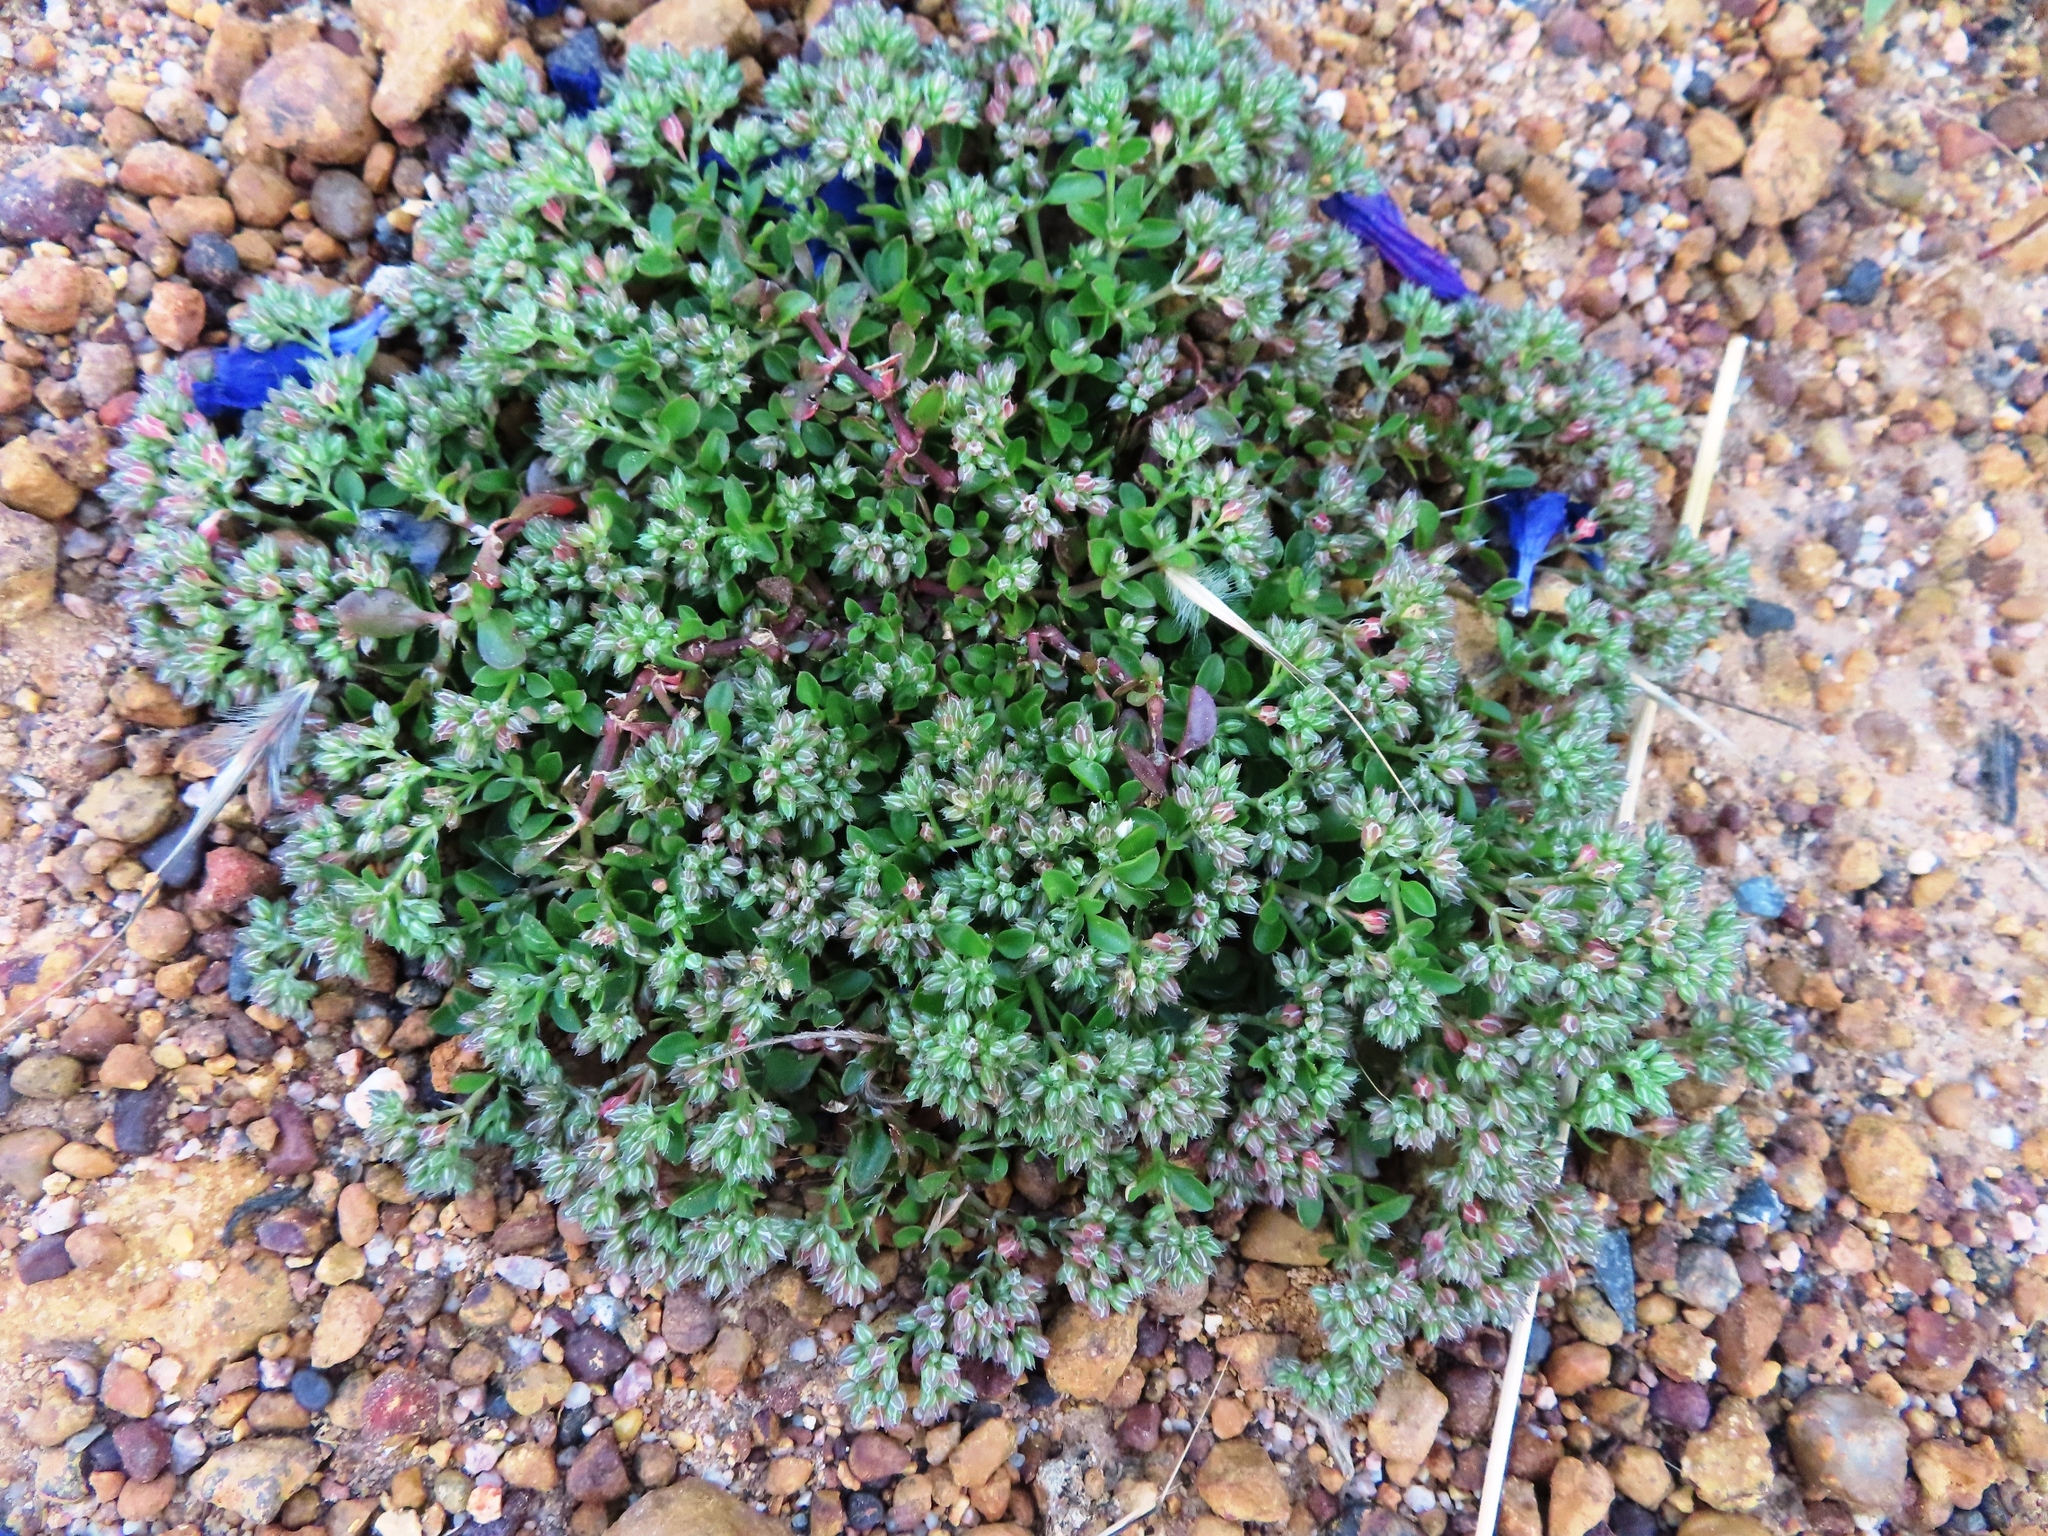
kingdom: Plantae
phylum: Tracheophyta
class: Magnoliopsida
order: Caryophyllales
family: Caryophyllaceae
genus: Polycarpon
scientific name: Polycarpon tetraphyllum
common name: Four-leaved all-seed
